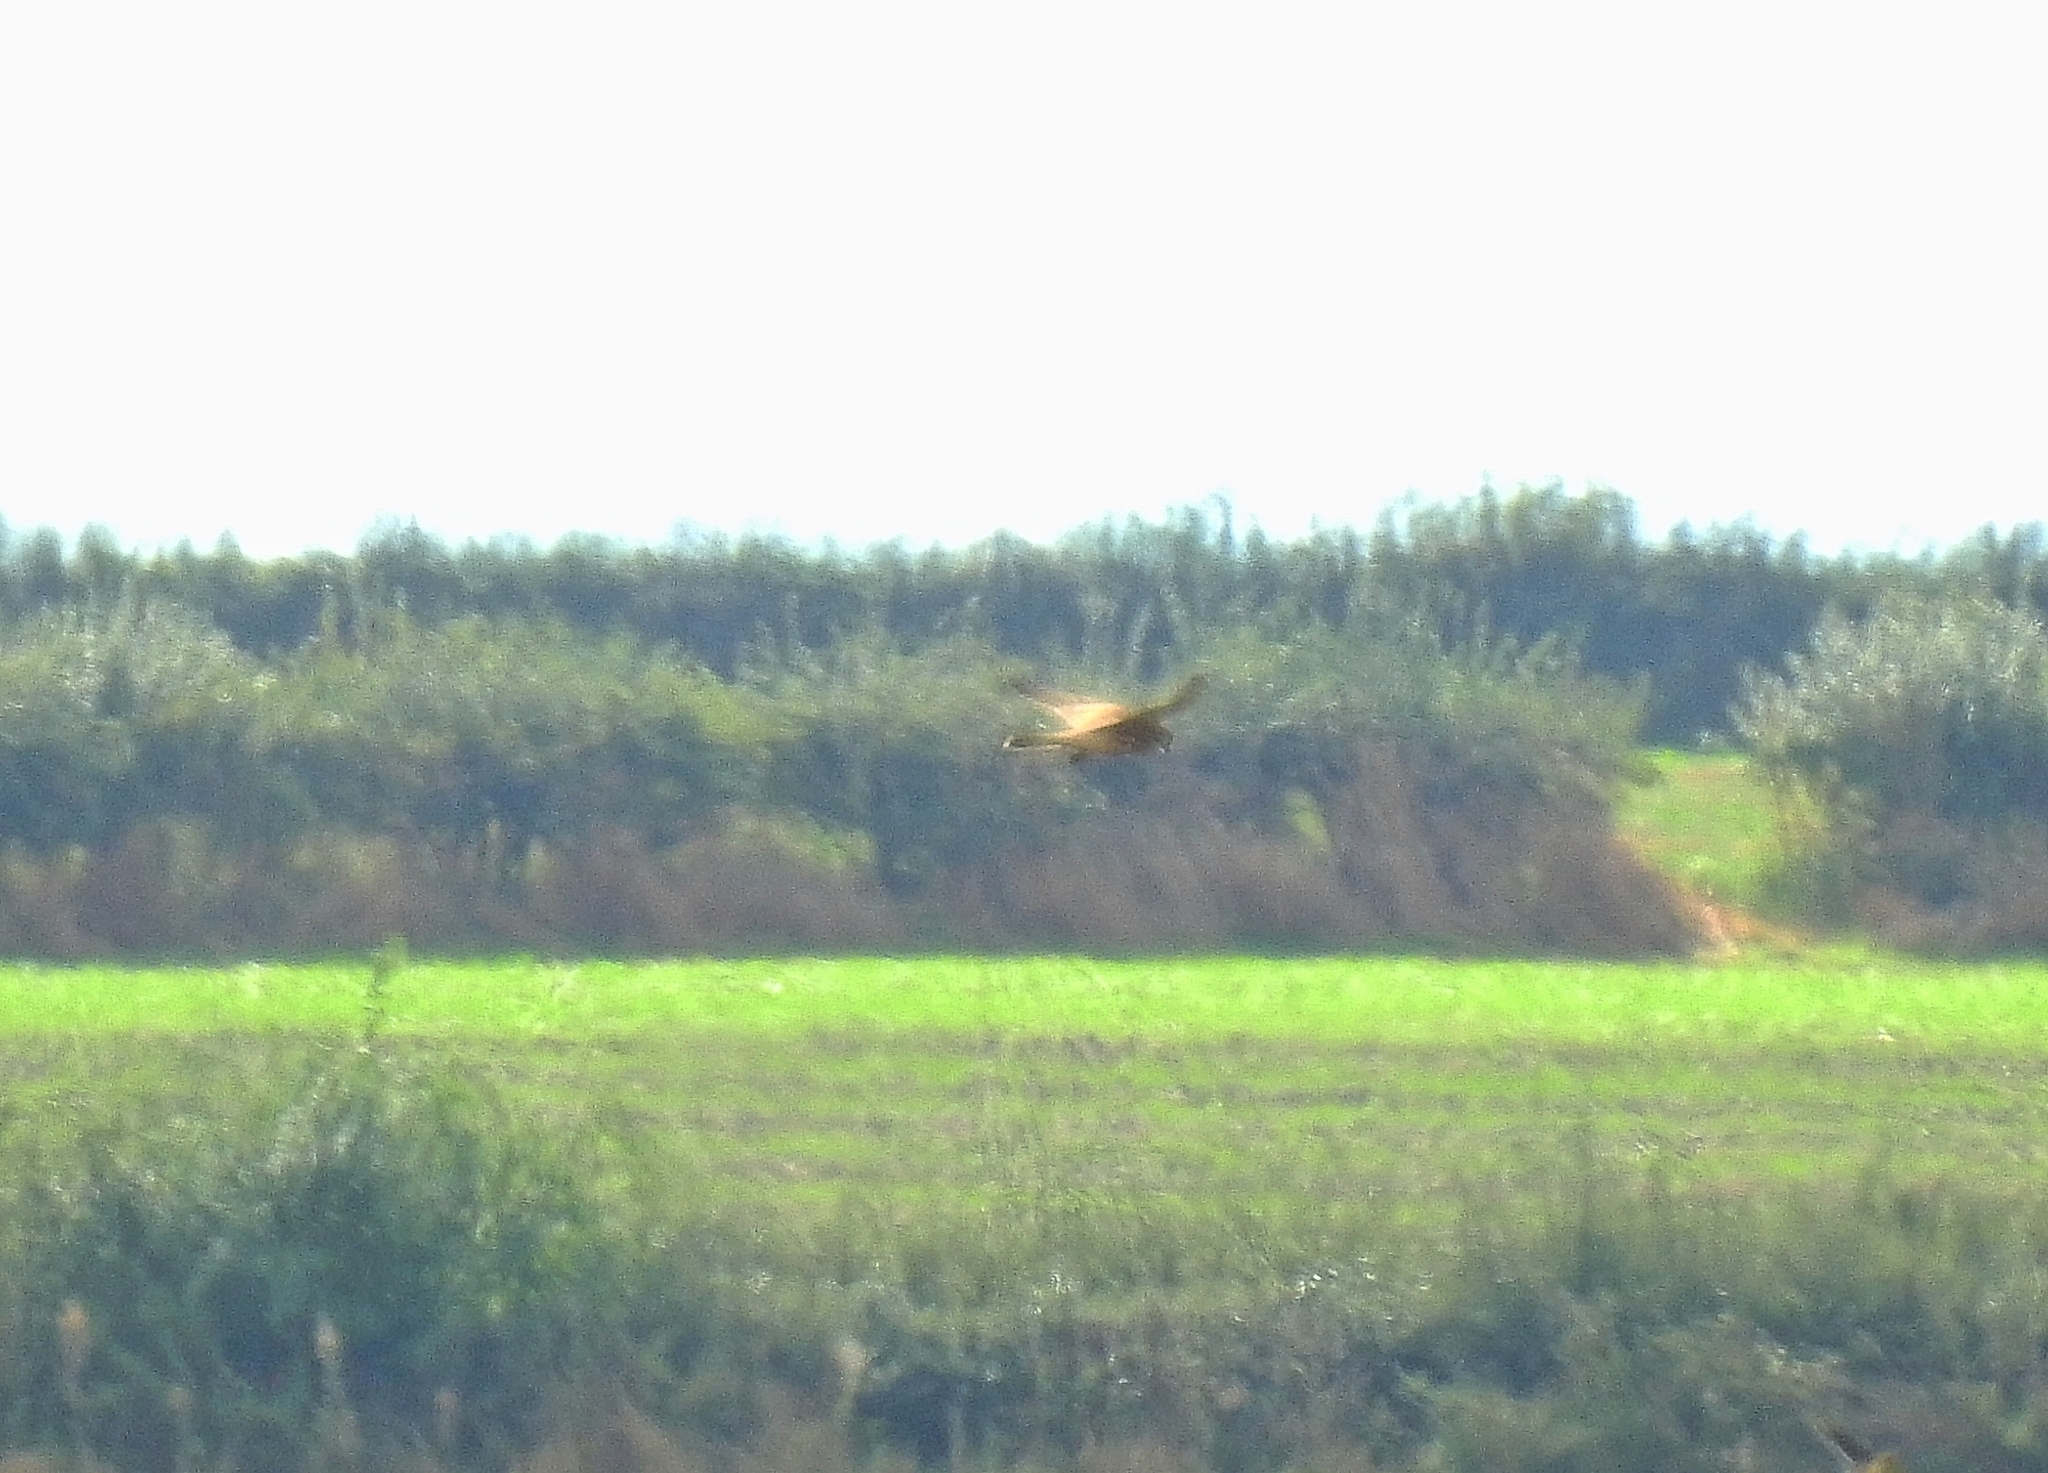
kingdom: Animalia
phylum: Chordata
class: Aves
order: Falconiformes
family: Falconidae
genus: Falco
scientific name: Falco tinnunculus
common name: Common kestrel
